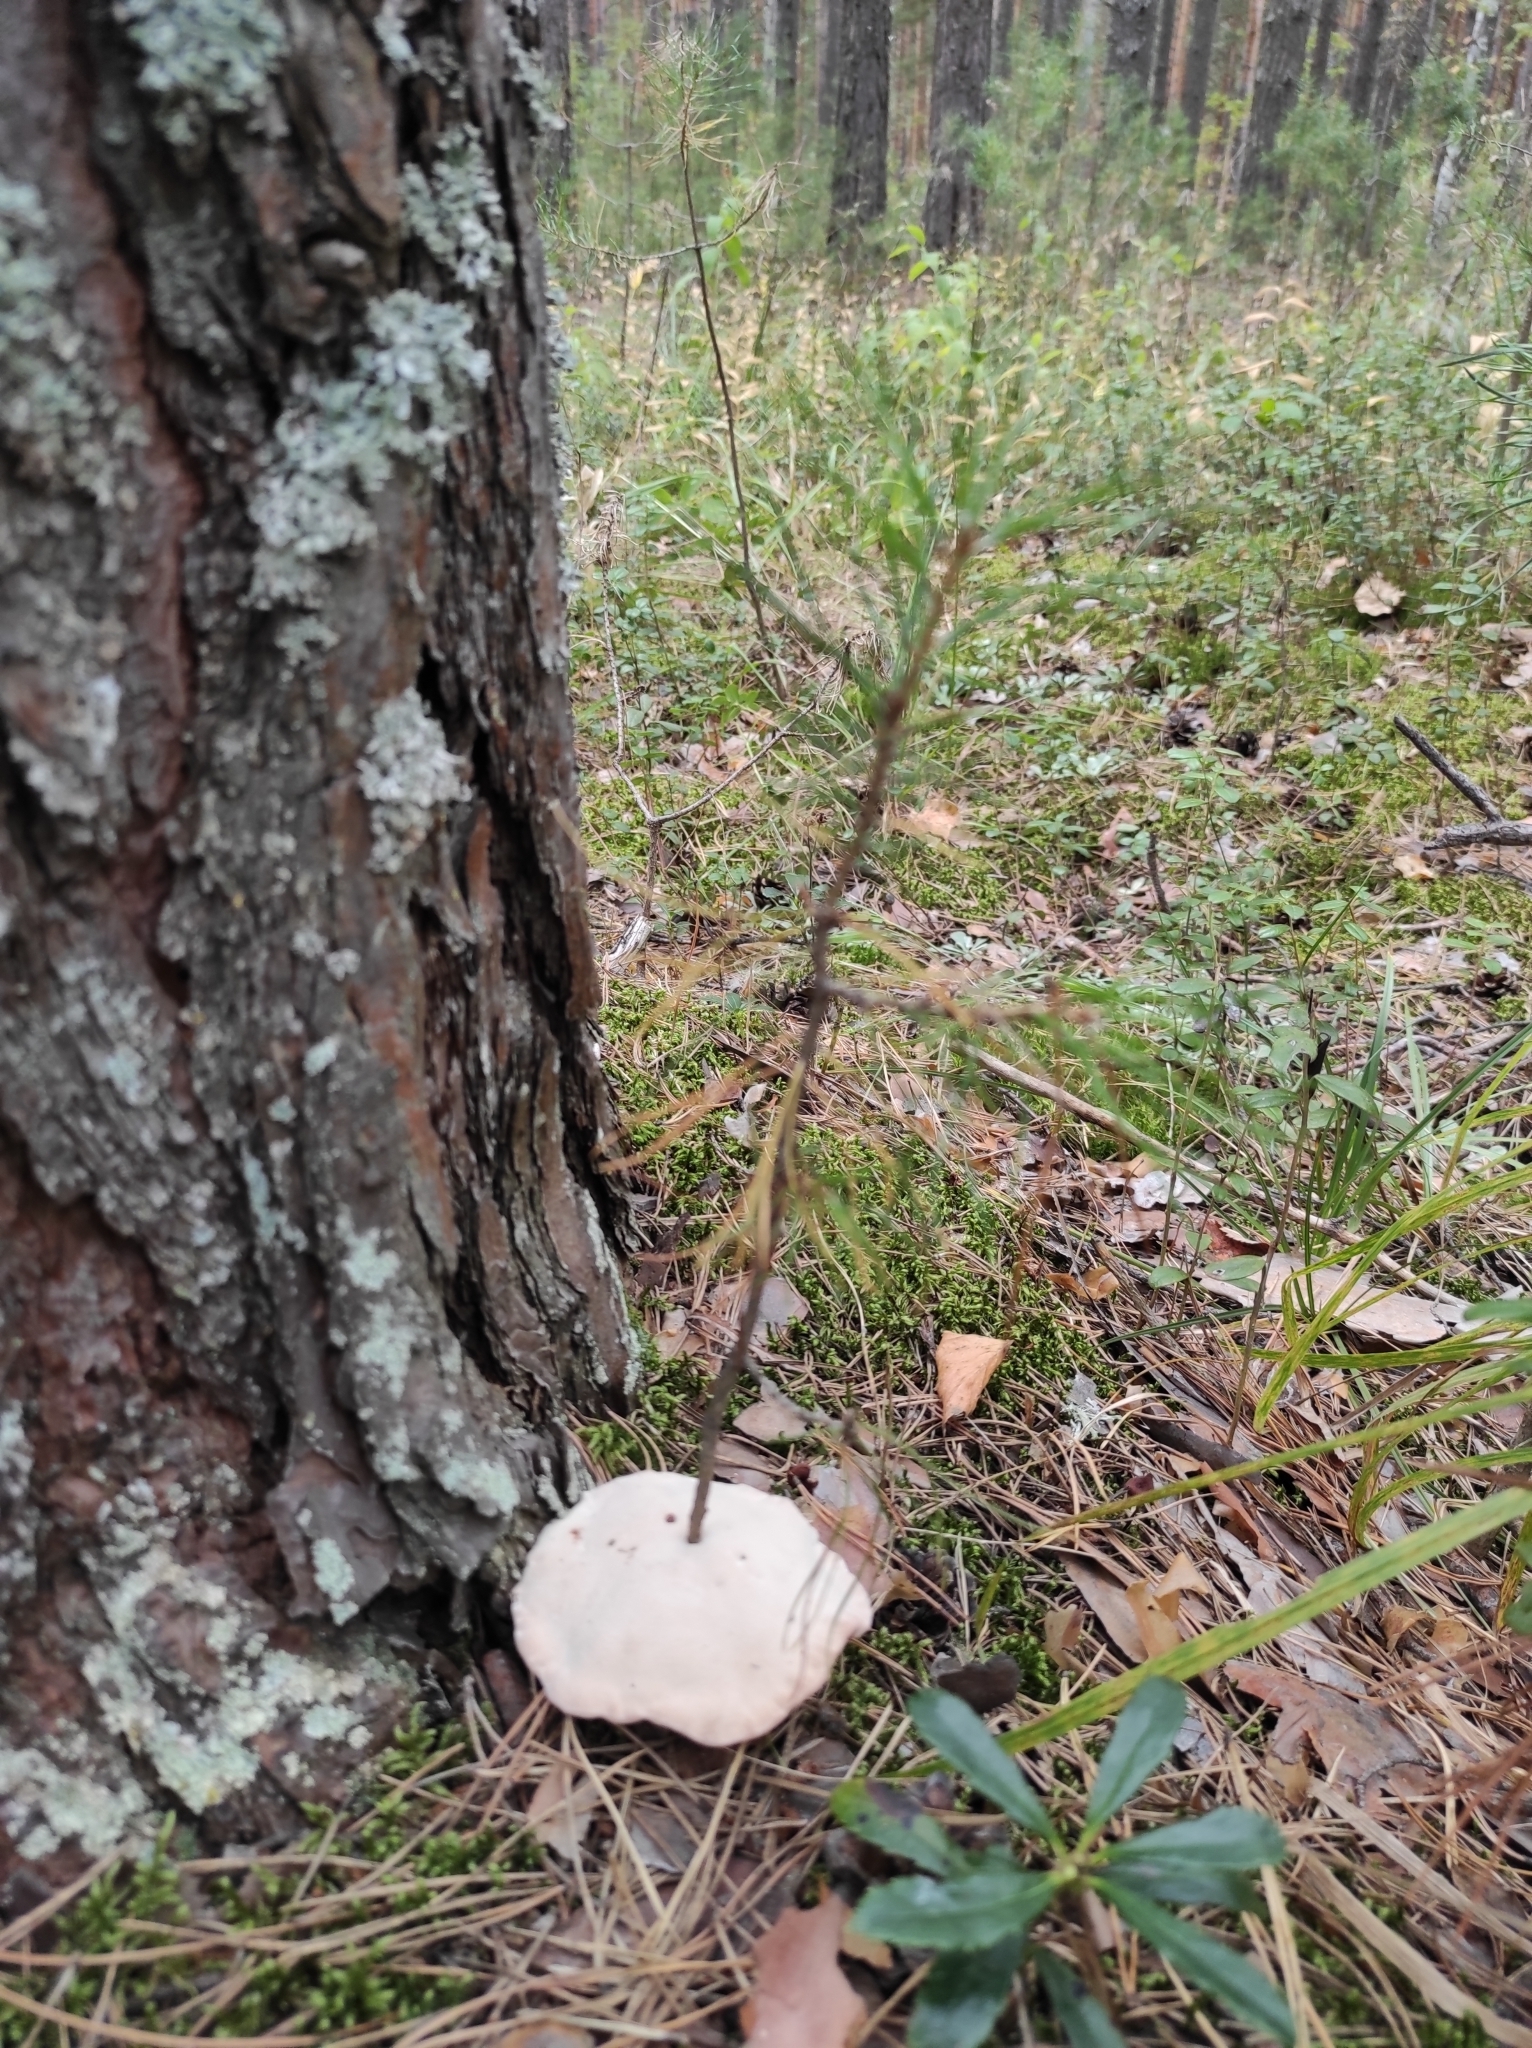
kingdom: Plantae
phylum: Tracheophyta
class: Pinopsida
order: Pinales
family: Pinaceae
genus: Pinus
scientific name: Pinus sylvestris
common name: Scots pine
